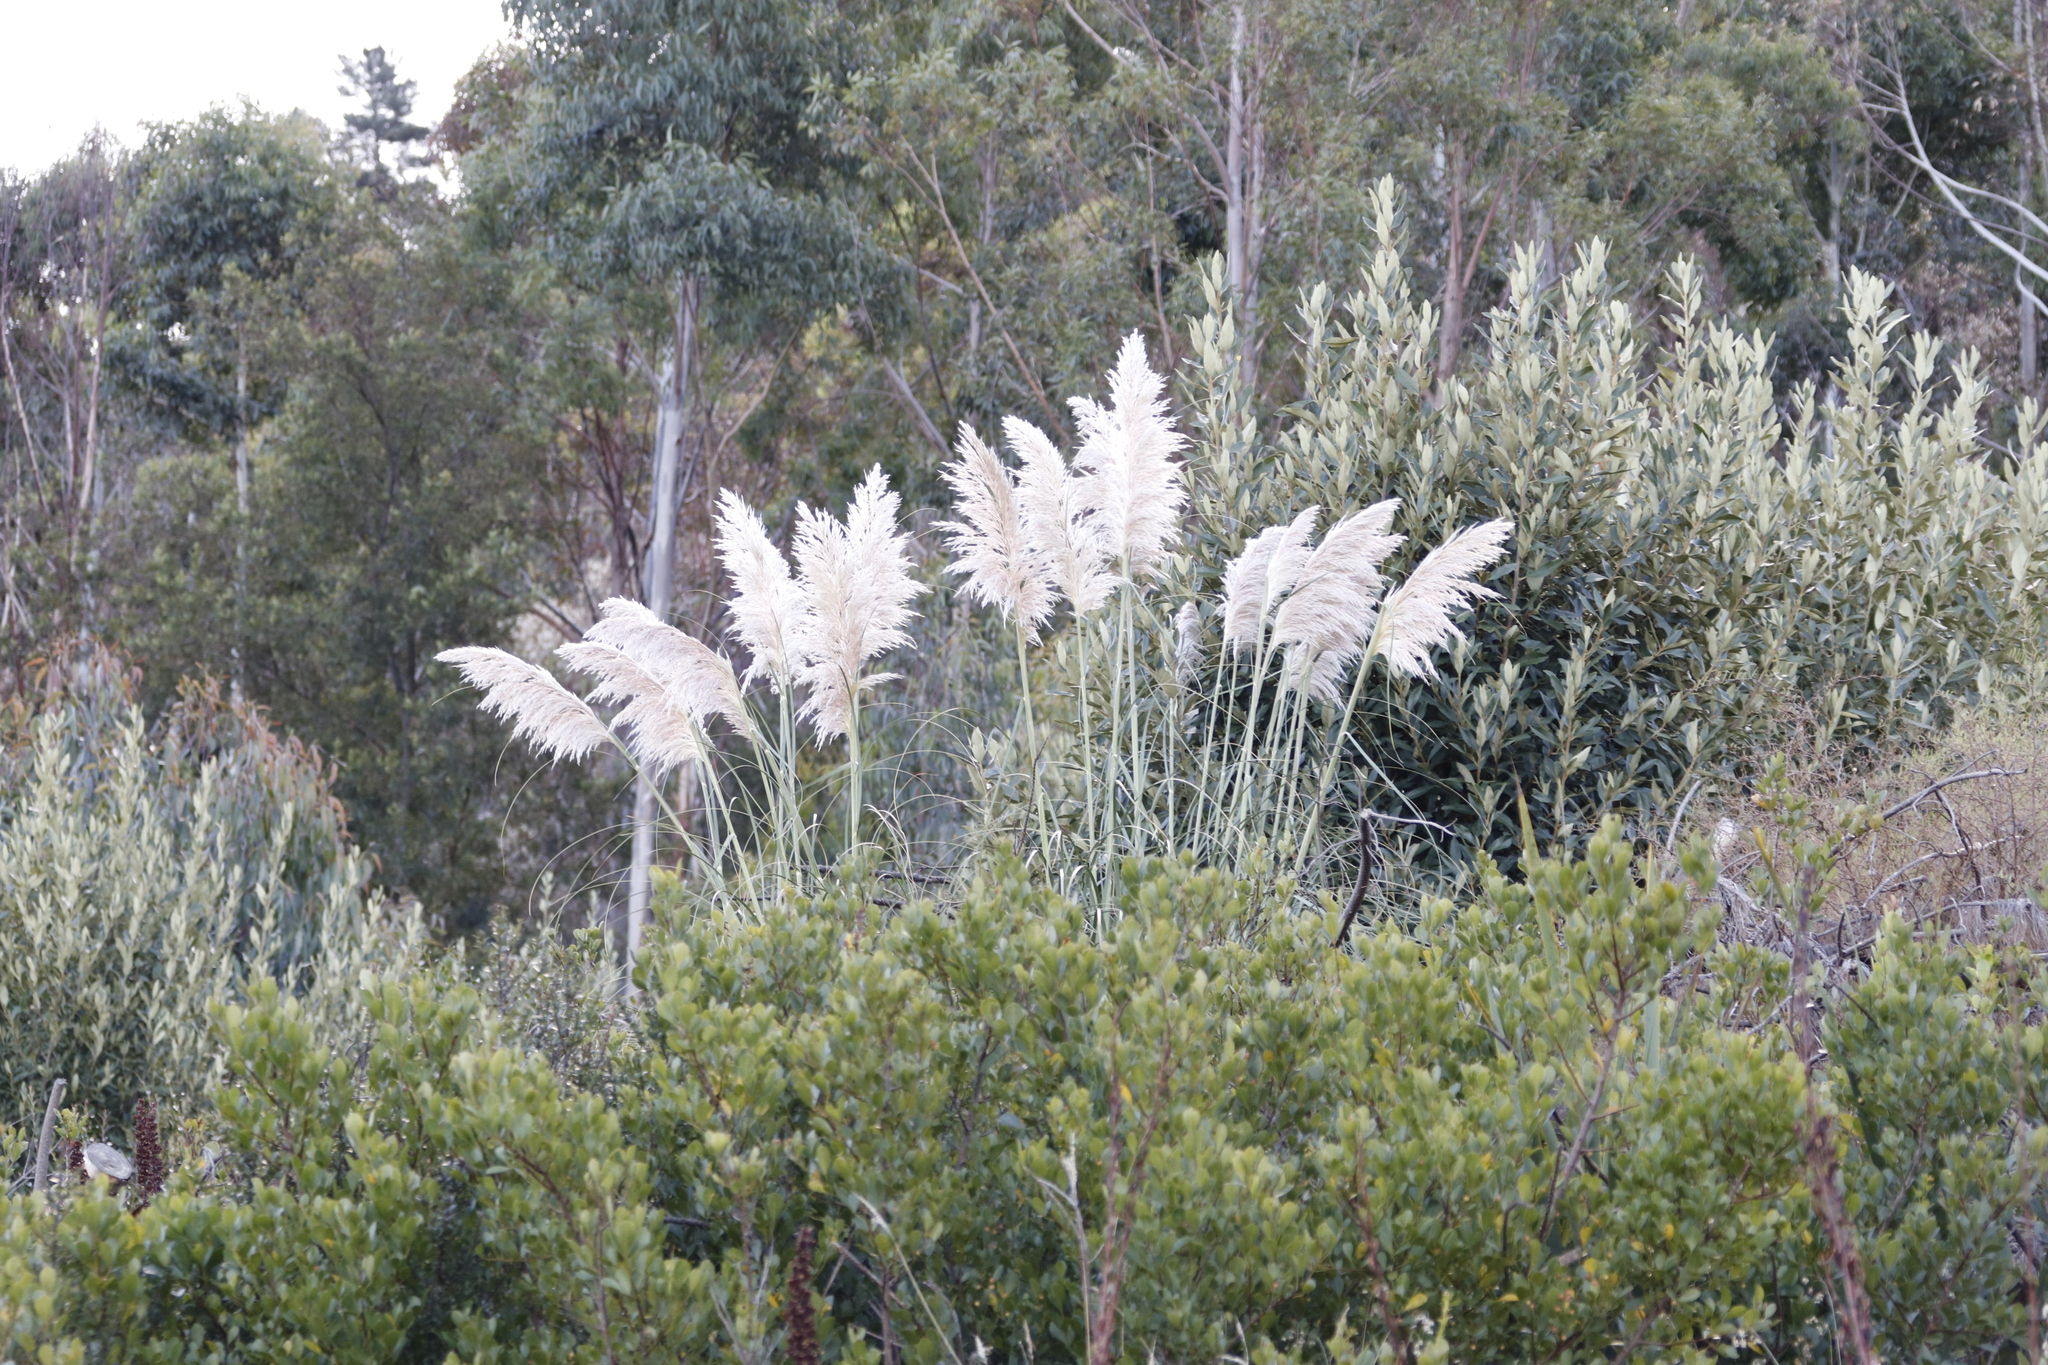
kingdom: Plantae
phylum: Tracheophyta
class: Liliopsida
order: Poales
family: Poaceae
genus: Cortaderia
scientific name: Cortaderia selloana
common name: Uruguayan pampas grass
